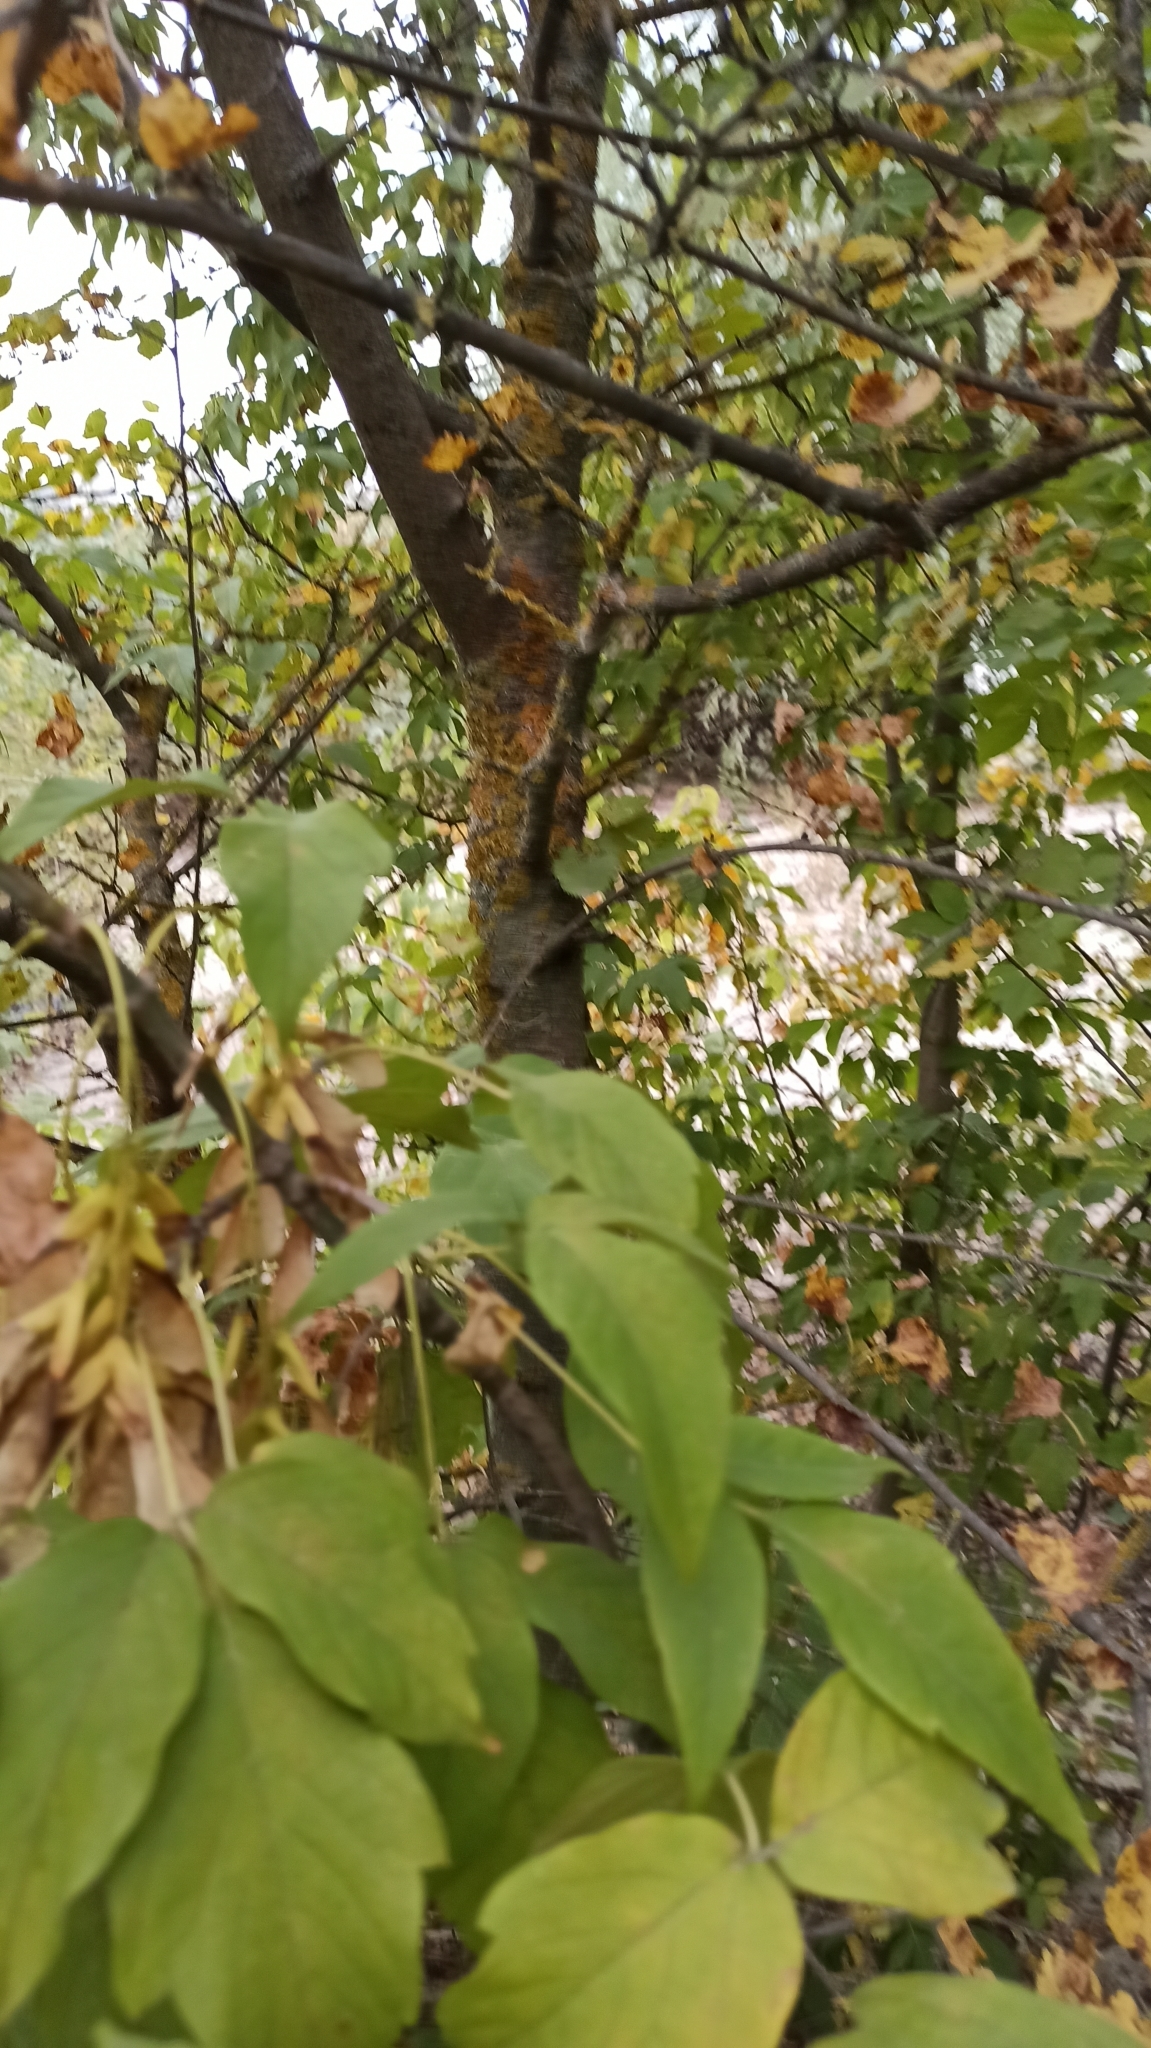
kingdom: Plantae
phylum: Tracheophyta
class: Magnoliopsida
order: Sapindales
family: Sapindaceae
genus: Acer
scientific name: Acer negundo
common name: Ashleaf maple
